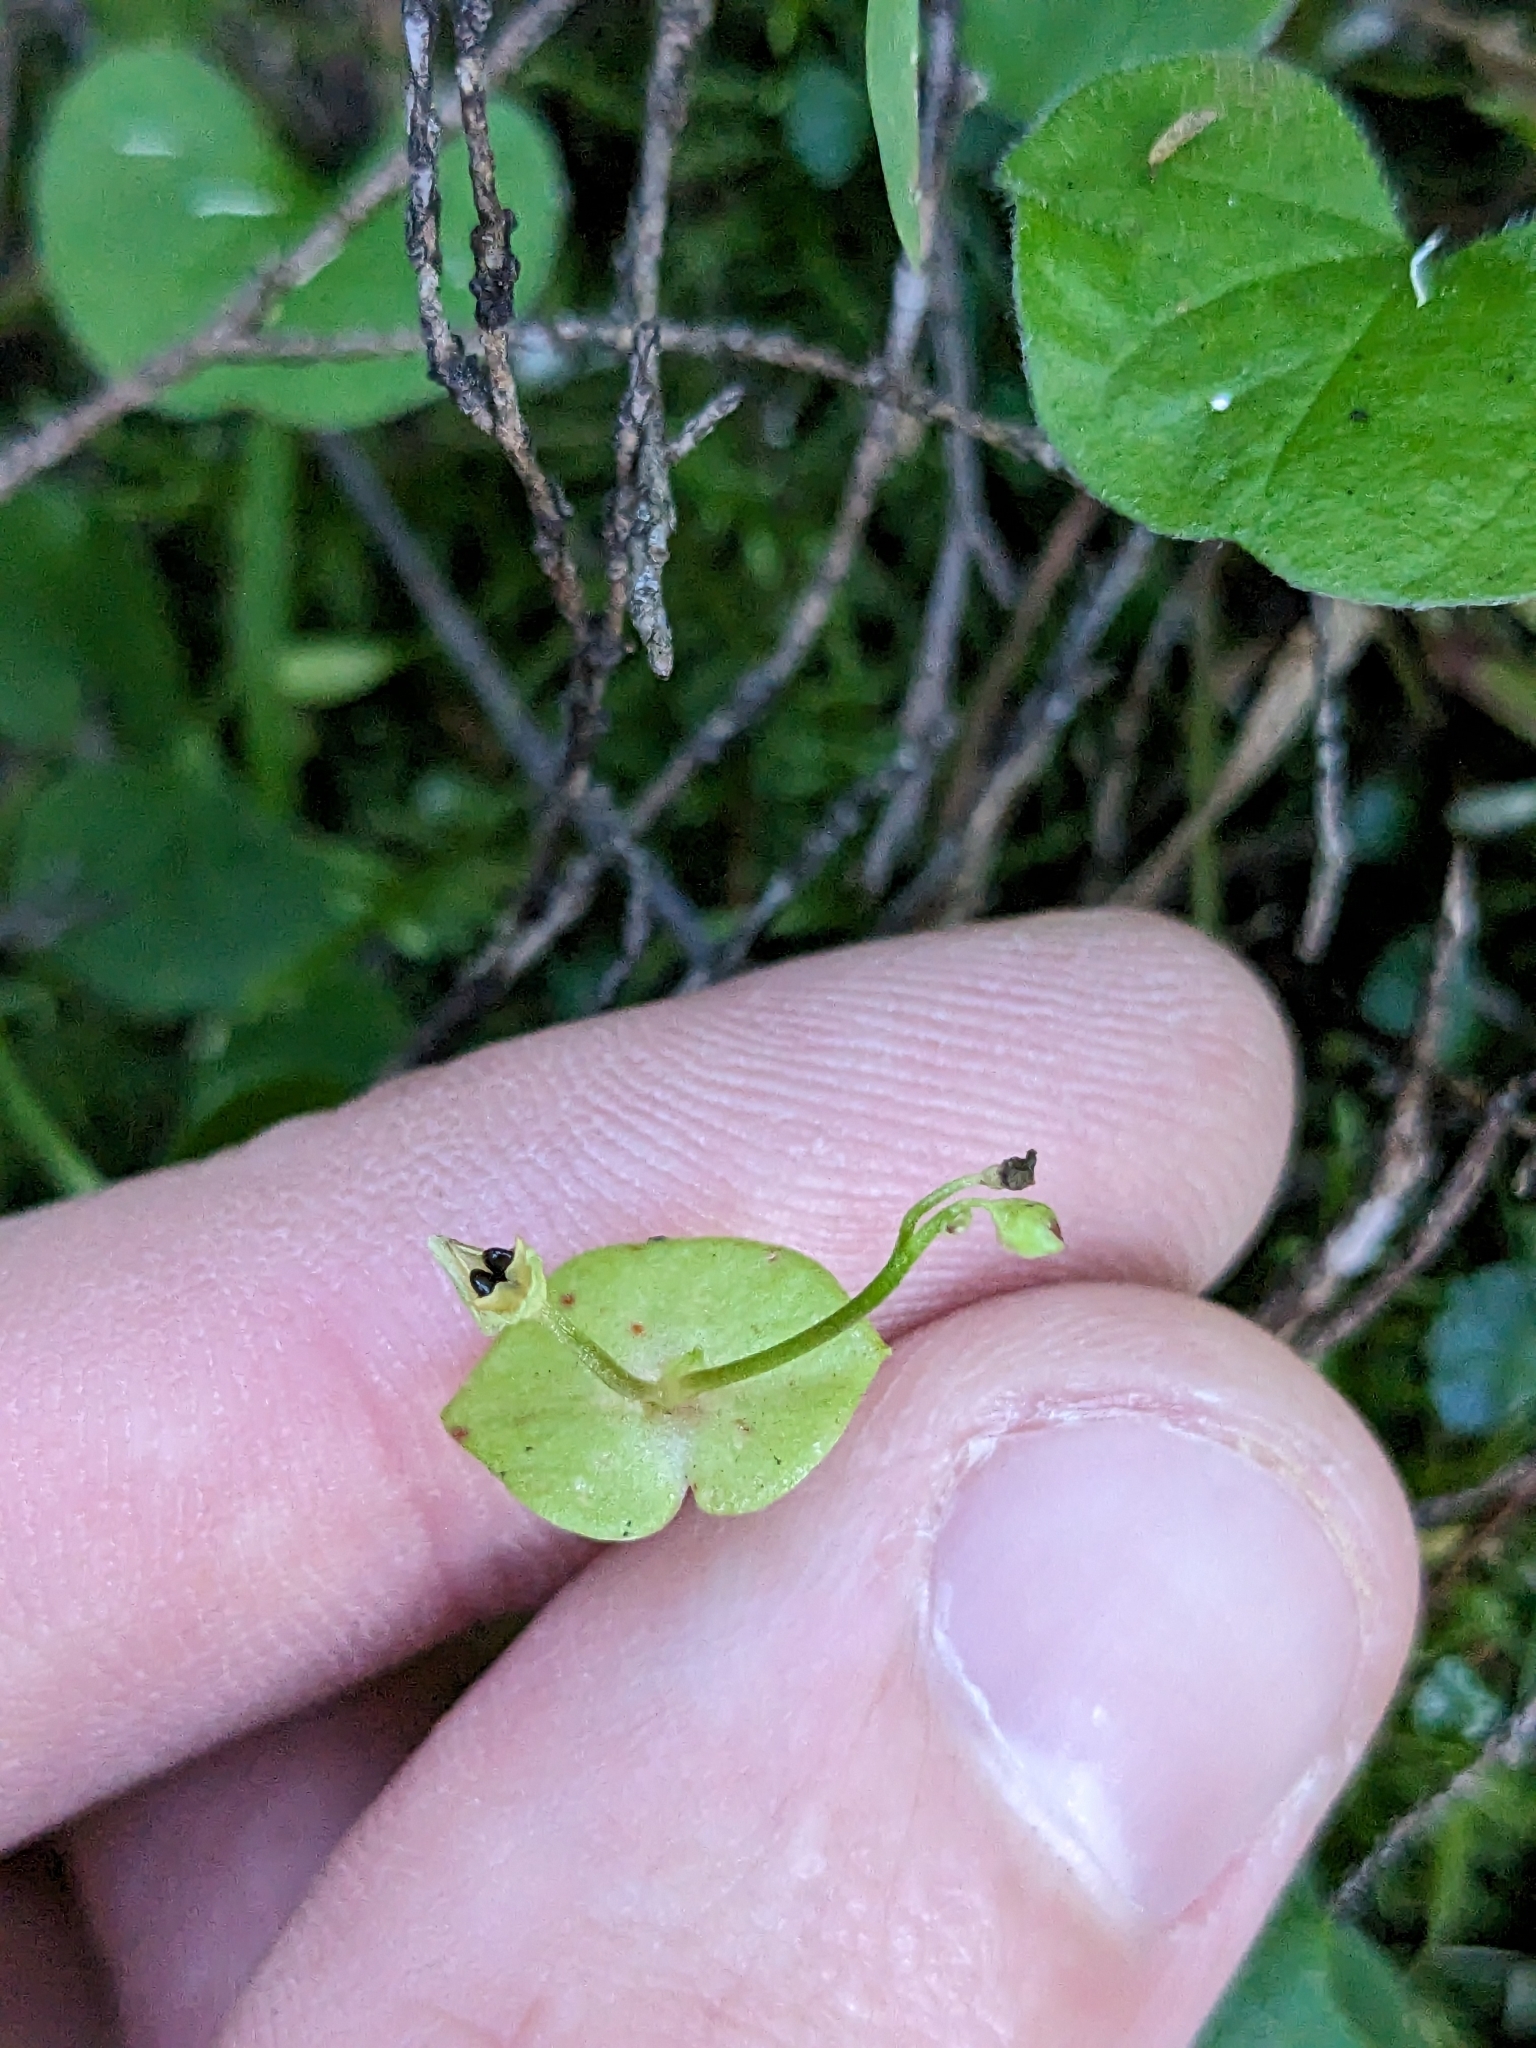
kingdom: Plantae
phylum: Tracheophyta
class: Magnoliopsida
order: Caryophyllales
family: Montiaceae
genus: Claytonia
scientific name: Claytonia perfoliata
